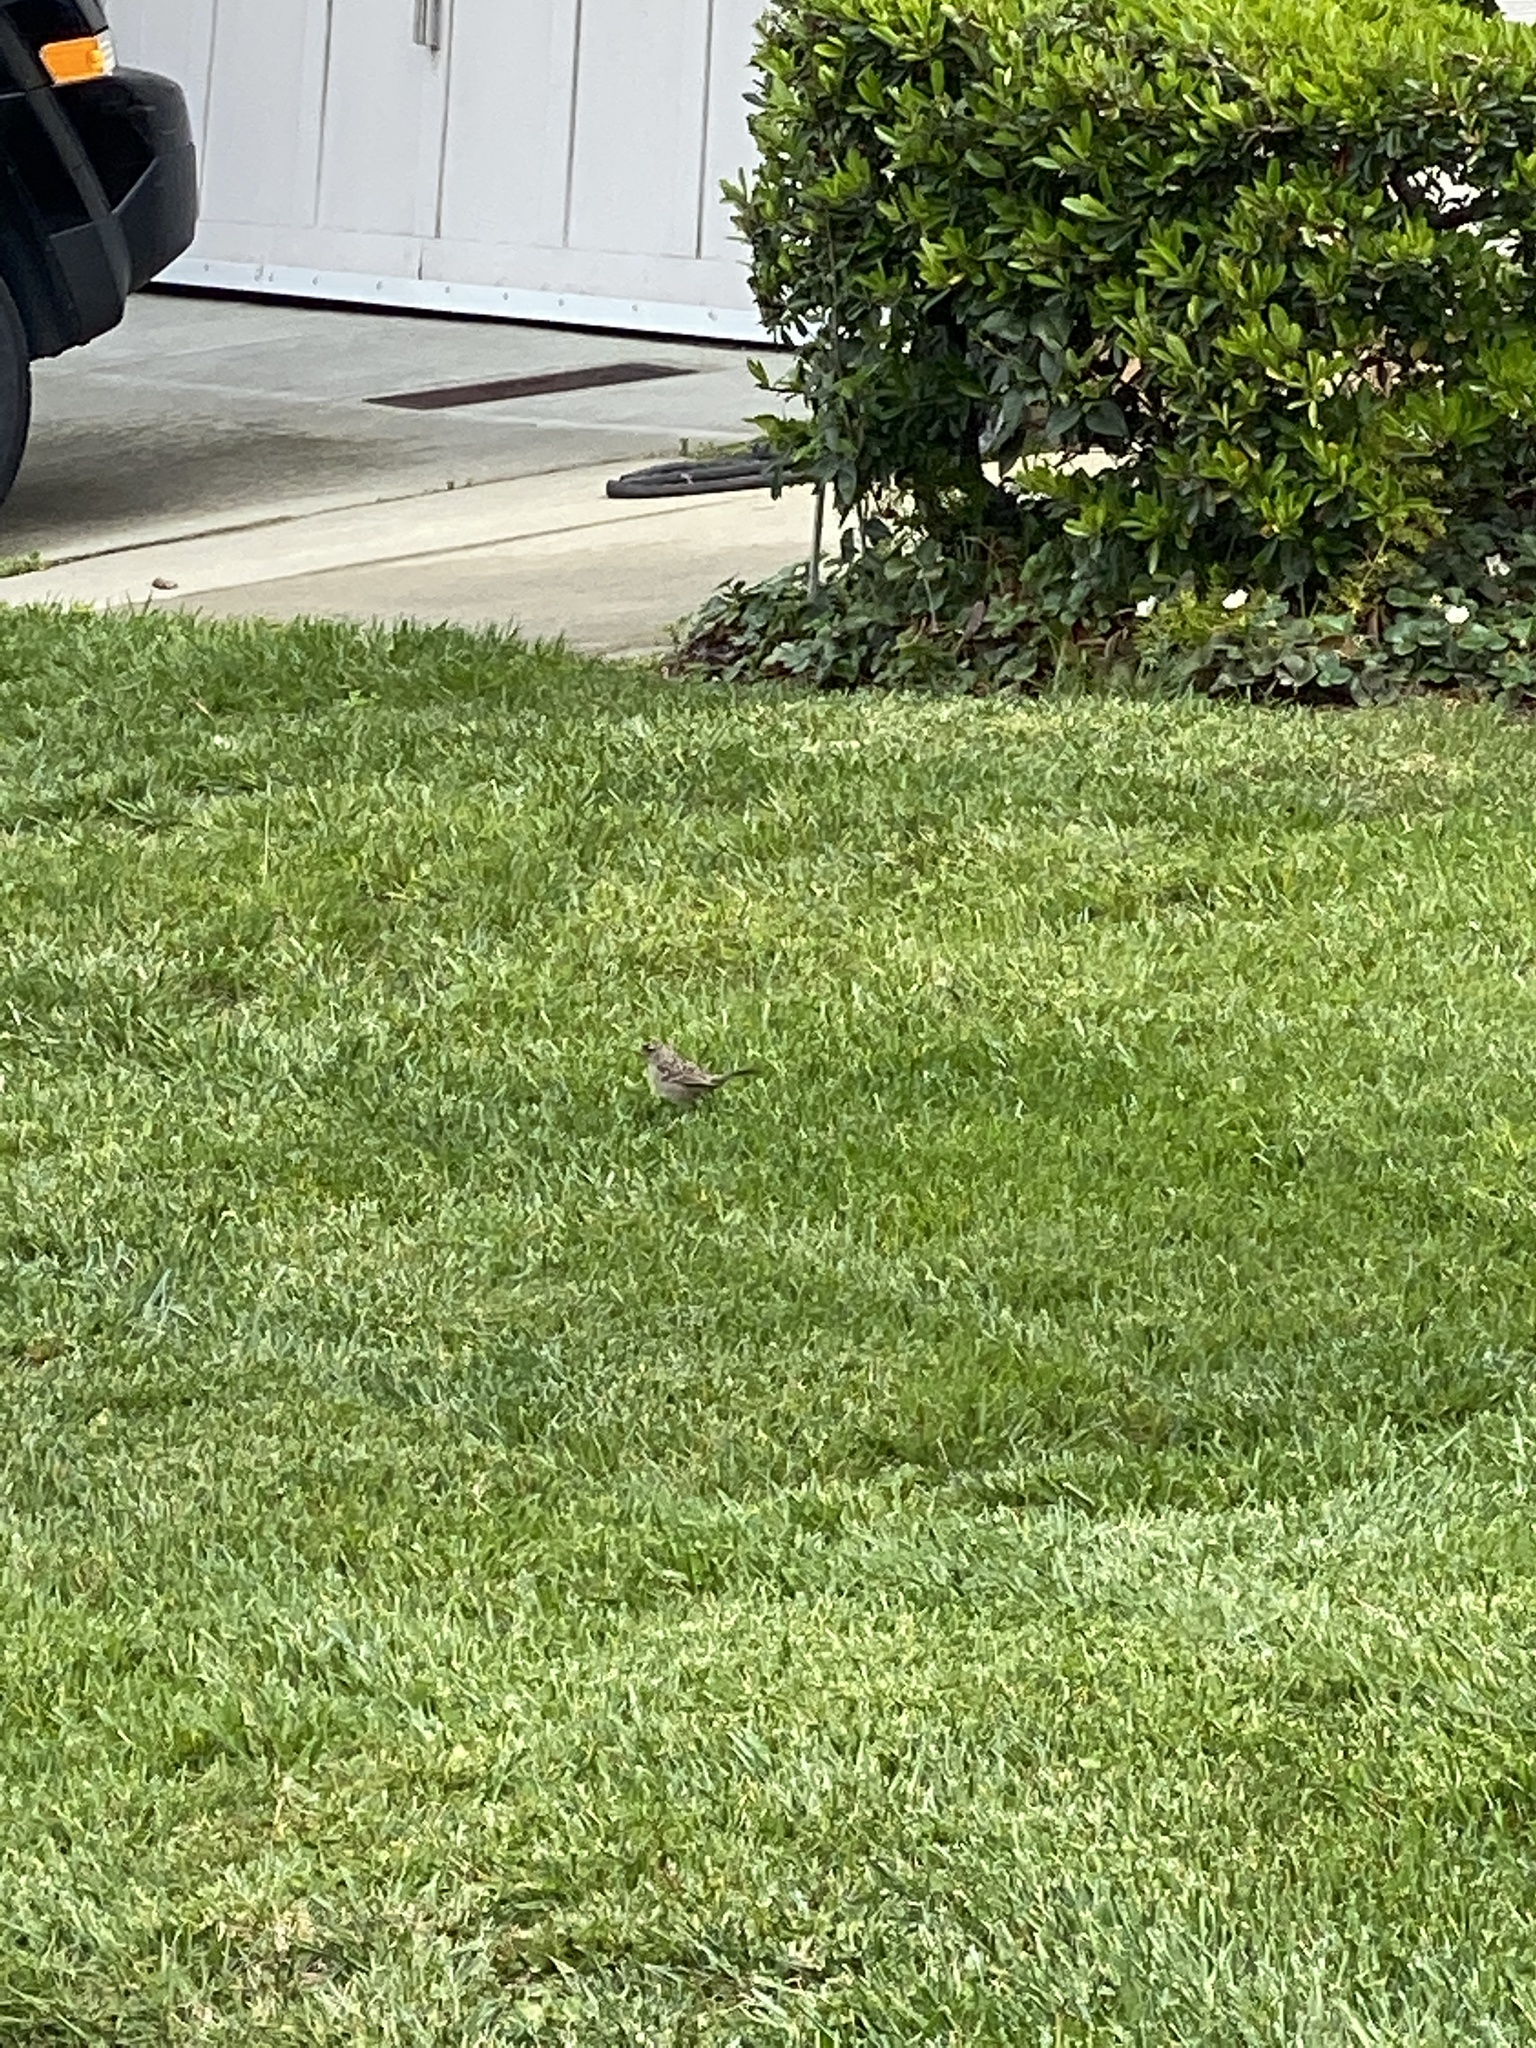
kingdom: Animalia
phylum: Chordata
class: Aves
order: Passeriformes
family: Passerellidae
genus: Zonotrichia
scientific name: Zonotrichia leucophrys
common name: White-crowned sparrow
